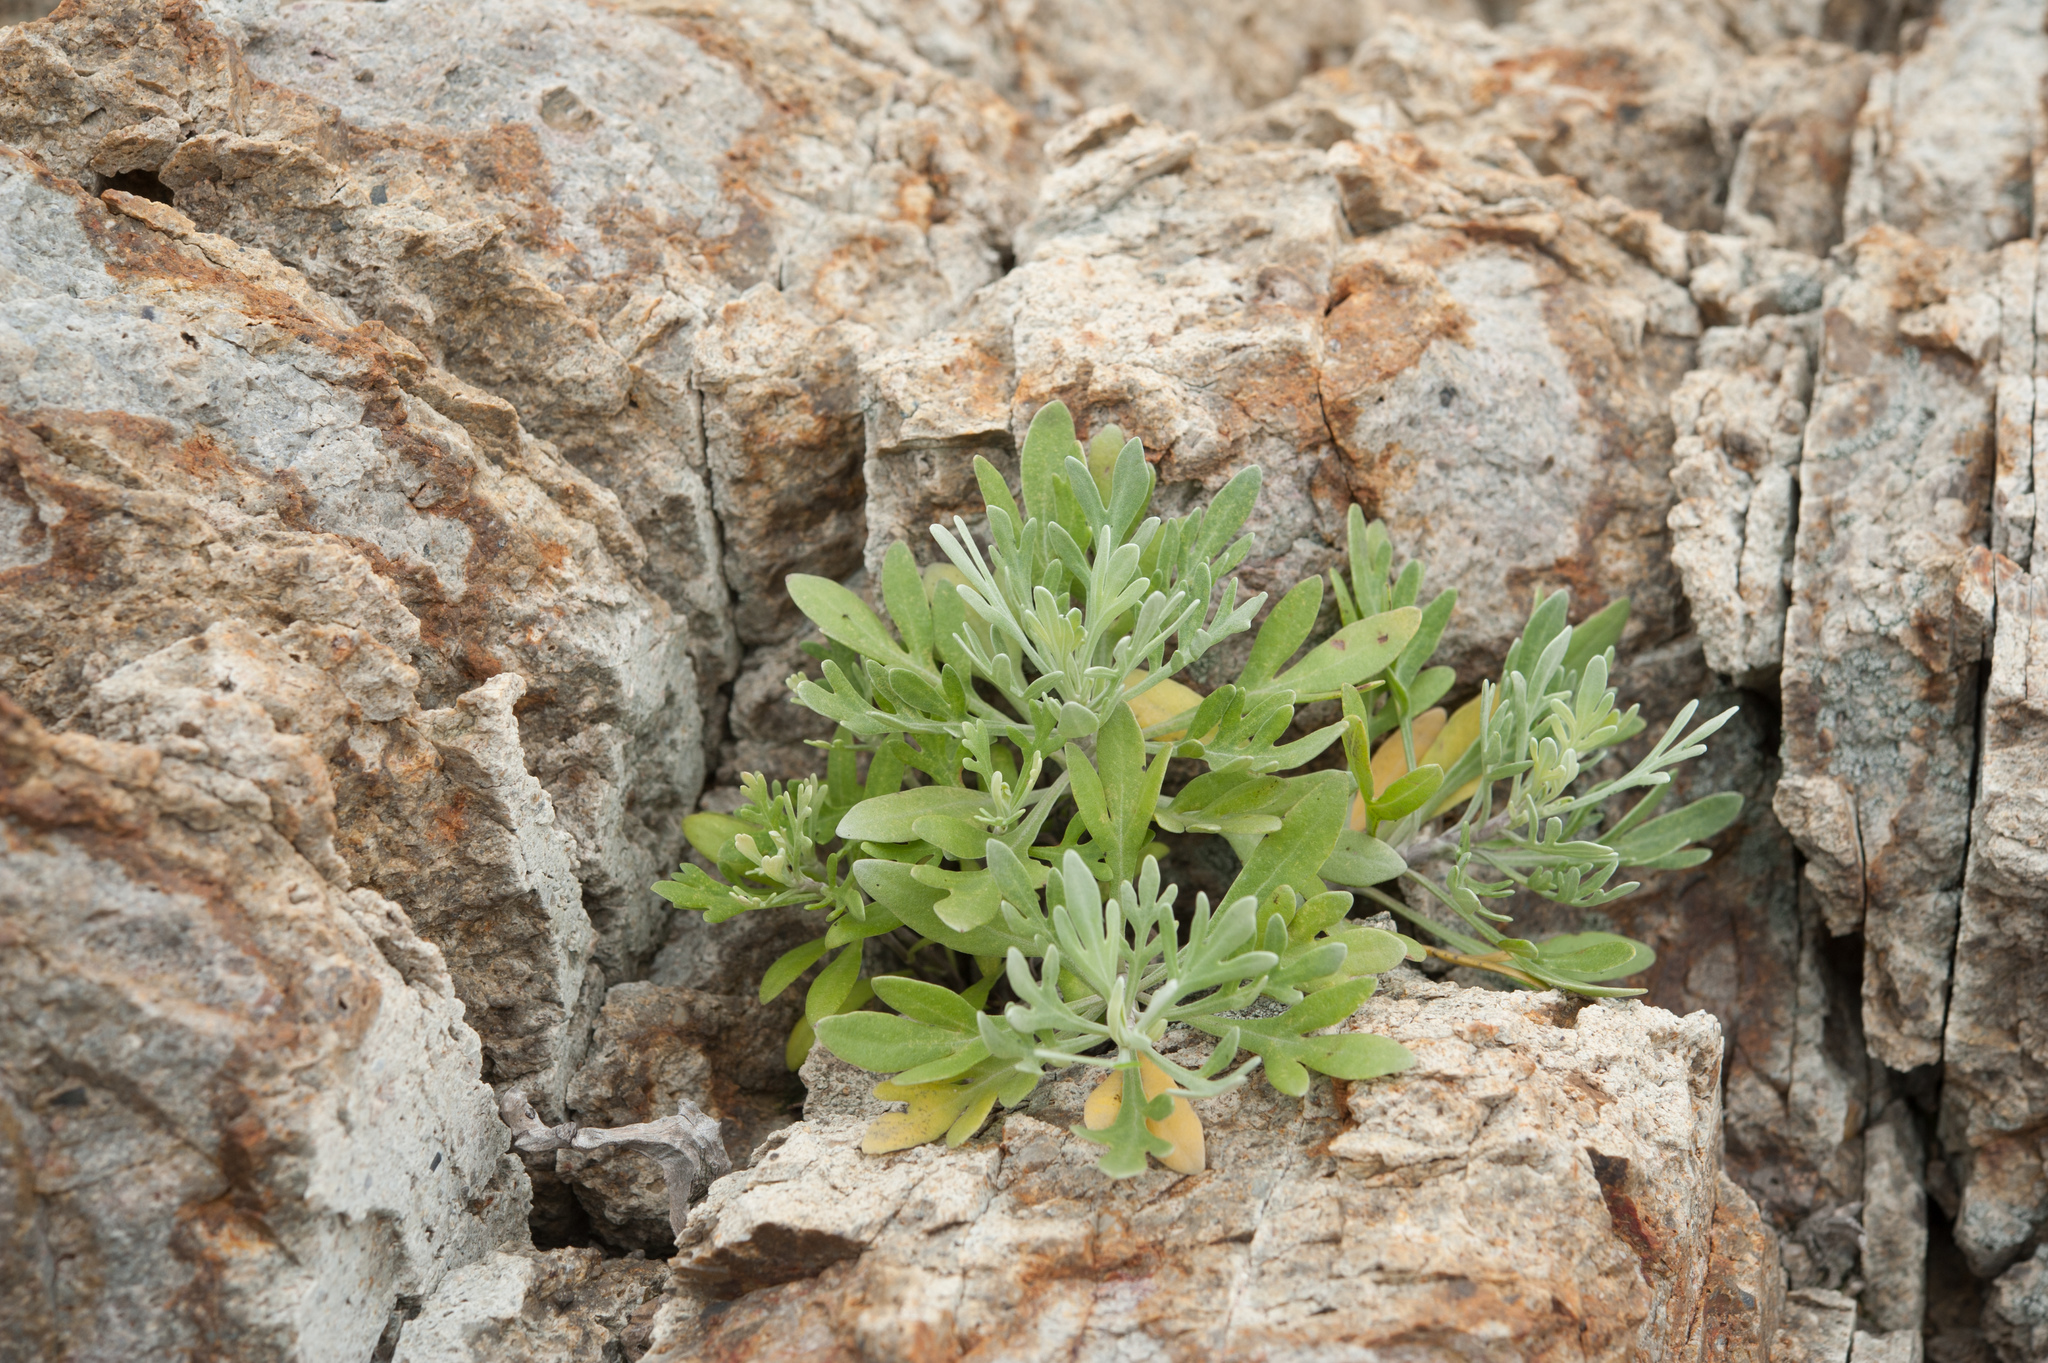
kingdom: Plantae
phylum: Tracheophyta
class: Magnoliopsida
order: Asterales
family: Asteraceae
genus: Crossostephium
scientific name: Crossostephium chinense
